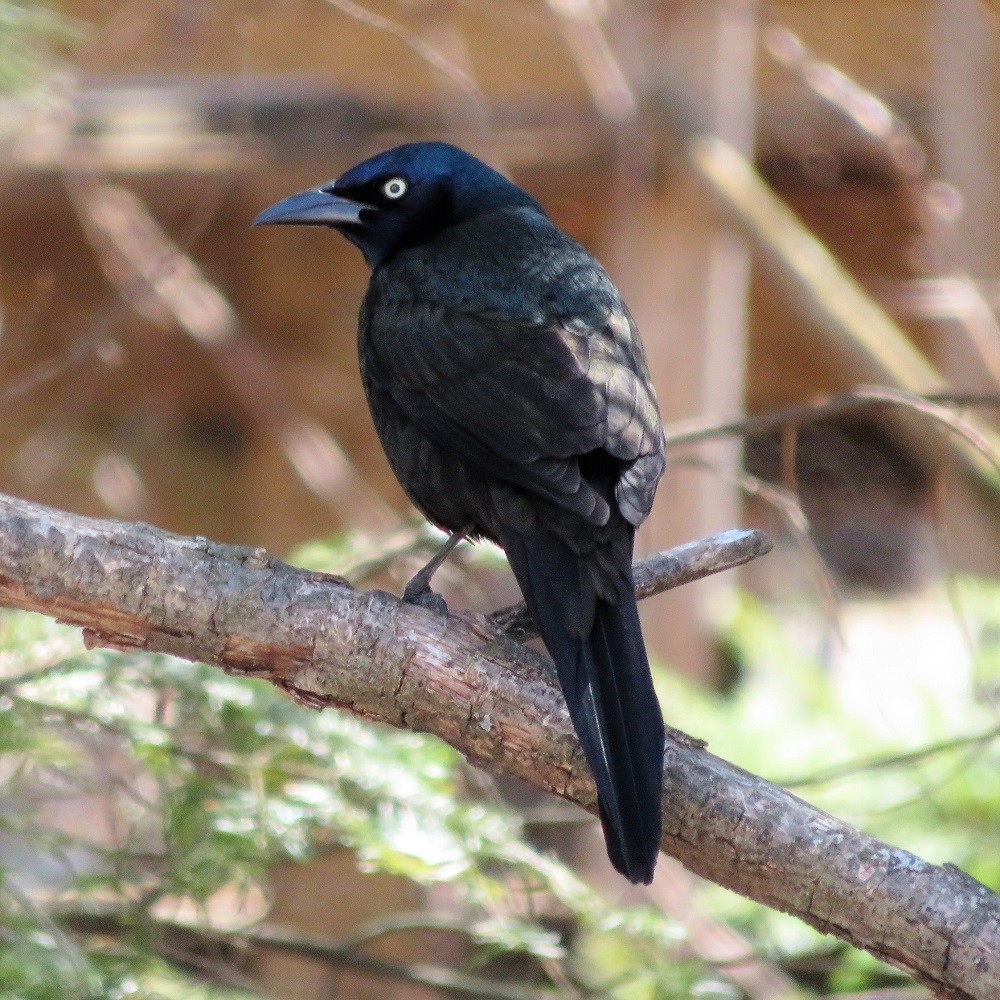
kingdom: Animalia
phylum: Chordata
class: Aves
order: Passeriformes
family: Icteridae
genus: Quiscalus
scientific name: Quiscalus quiscula
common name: Common grackle
